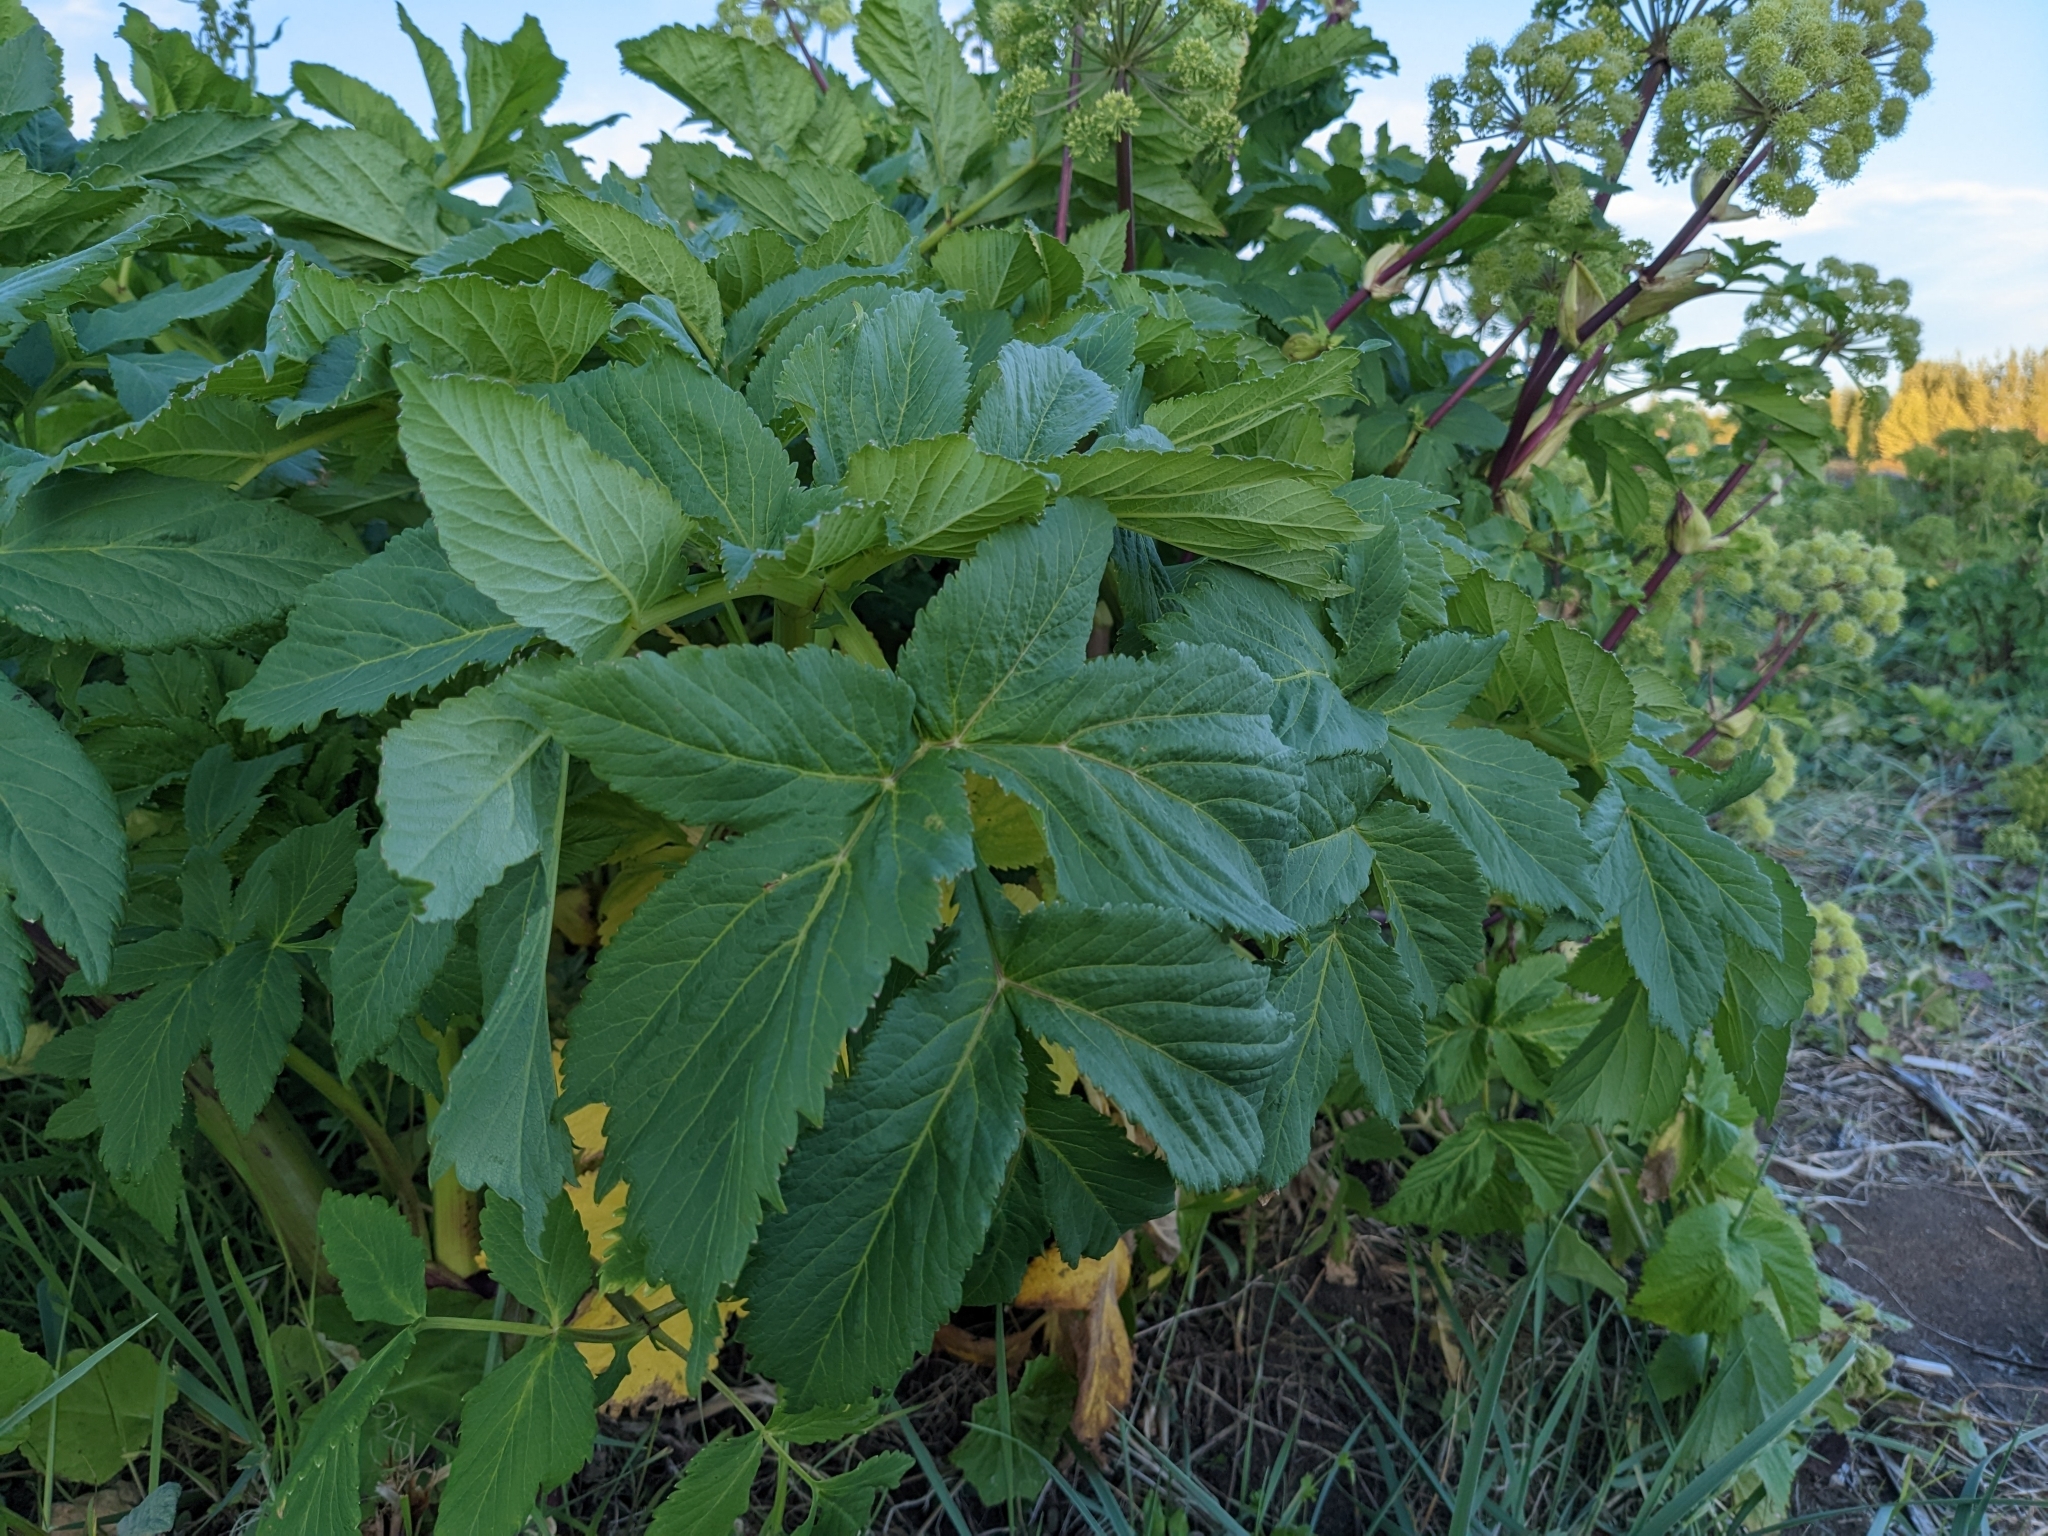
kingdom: Plantae
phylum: Tracheophyta
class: Magnoliopsida
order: Apiales
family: Apiaceae
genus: Angelica
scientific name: Angelica archangelica
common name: Garden angelica
